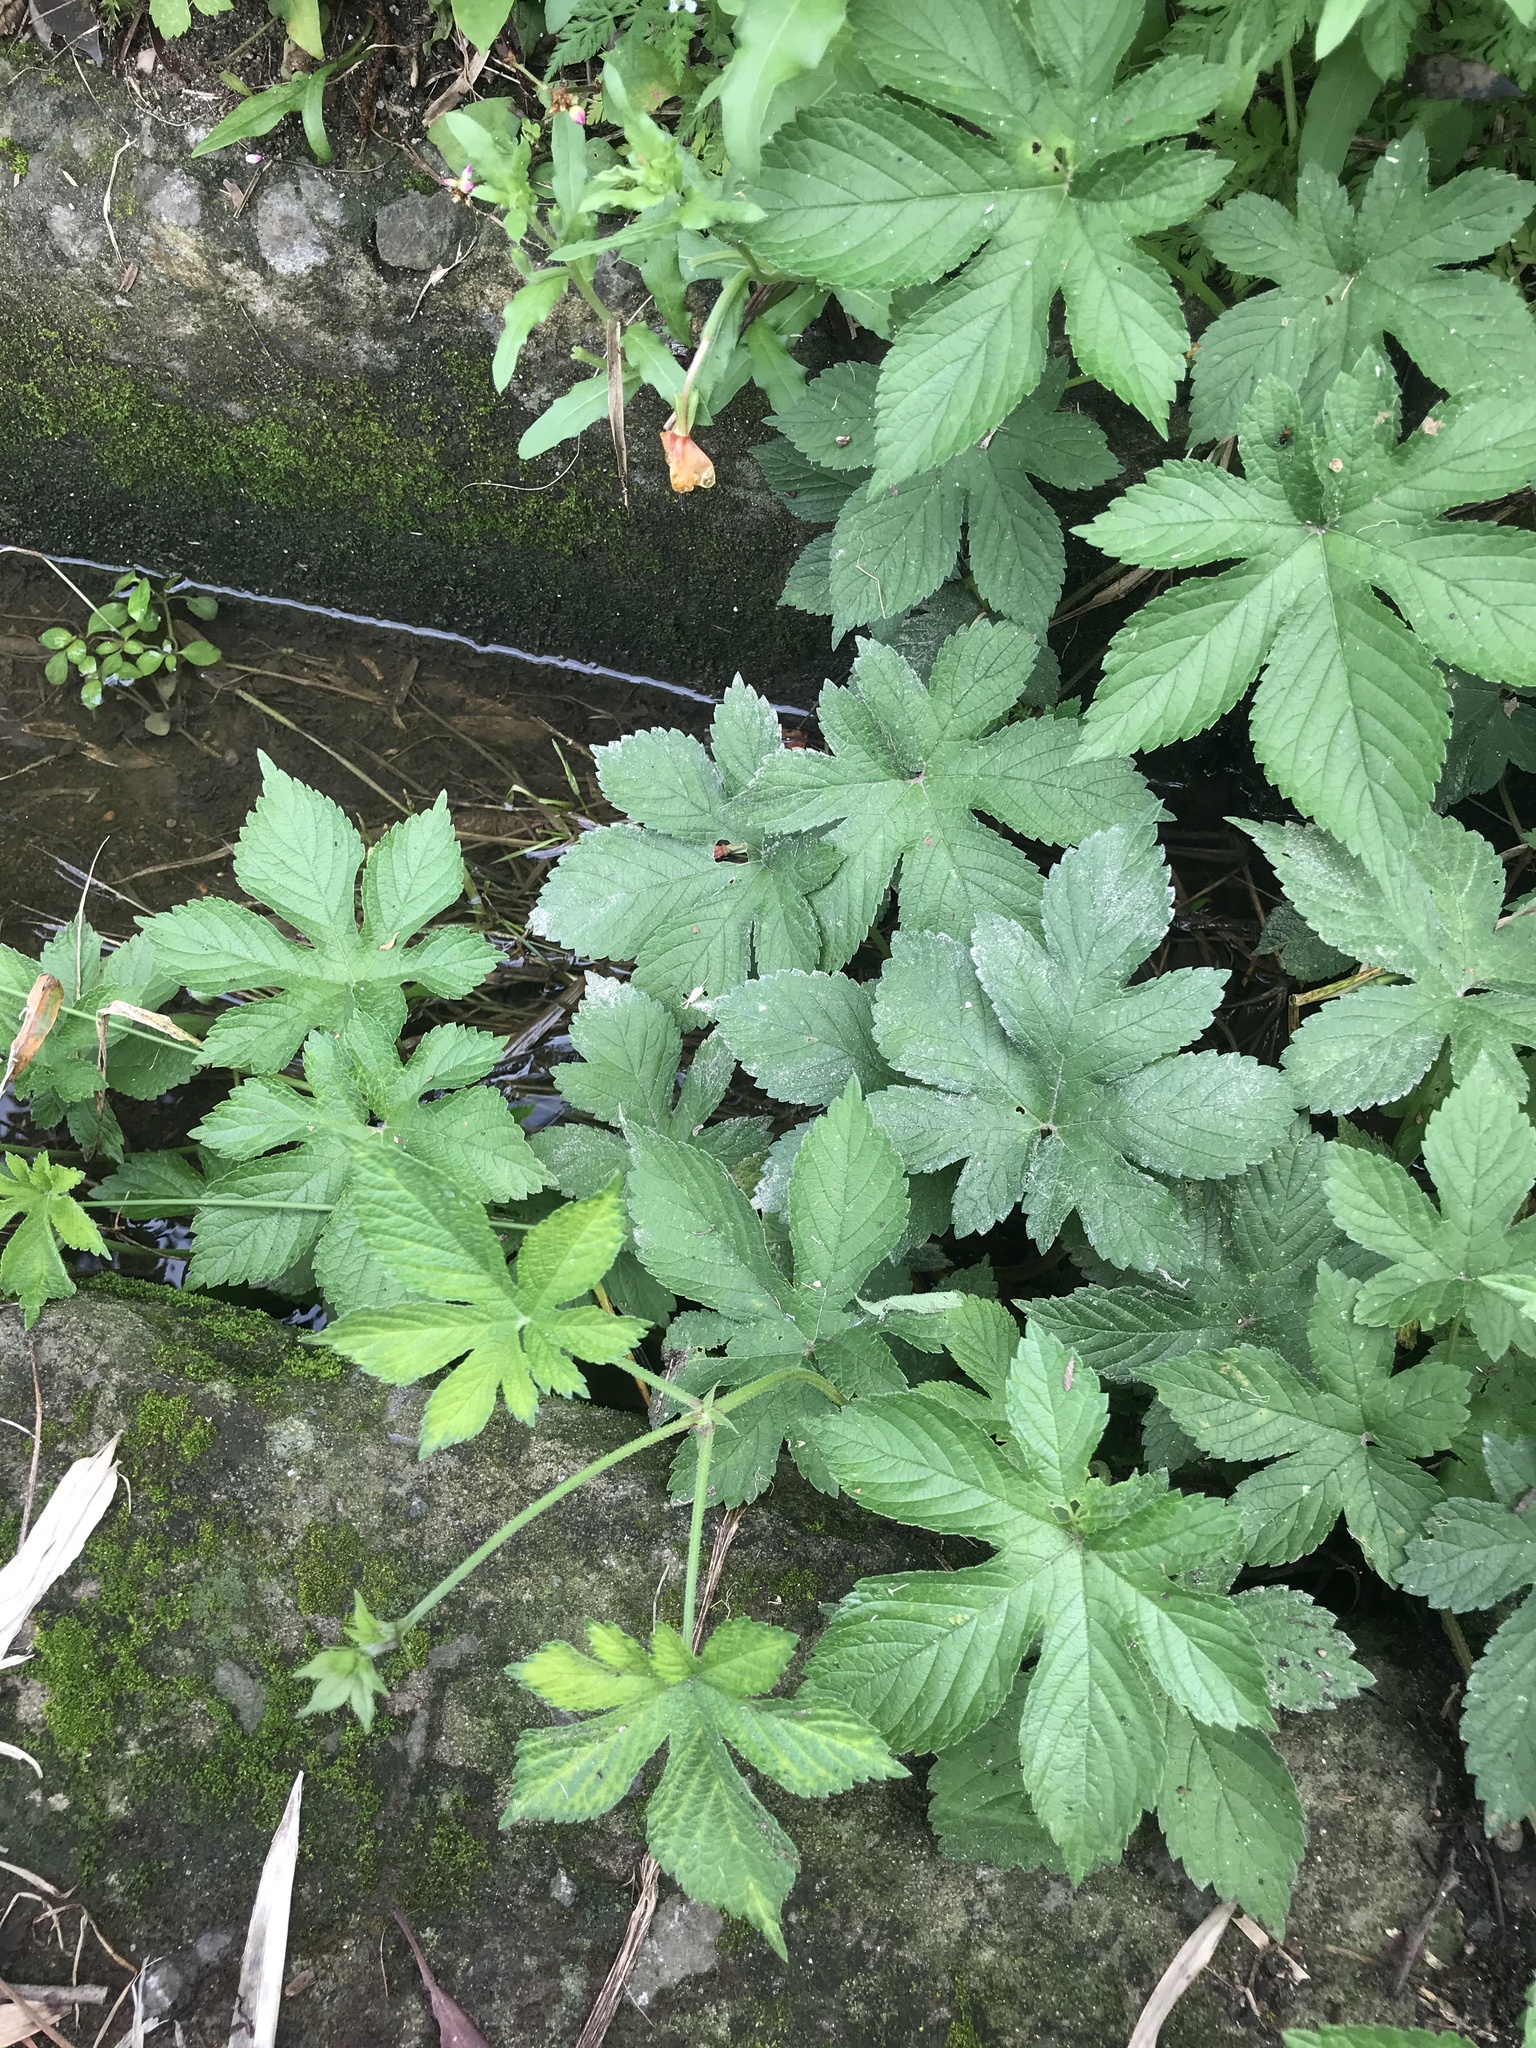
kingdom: Plantae
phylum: Tracheophyta
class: Magnoliopsida
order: Rosales
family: Cannabaceae
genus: Humulus
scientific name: Humulus scandens
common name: Japanese hop
